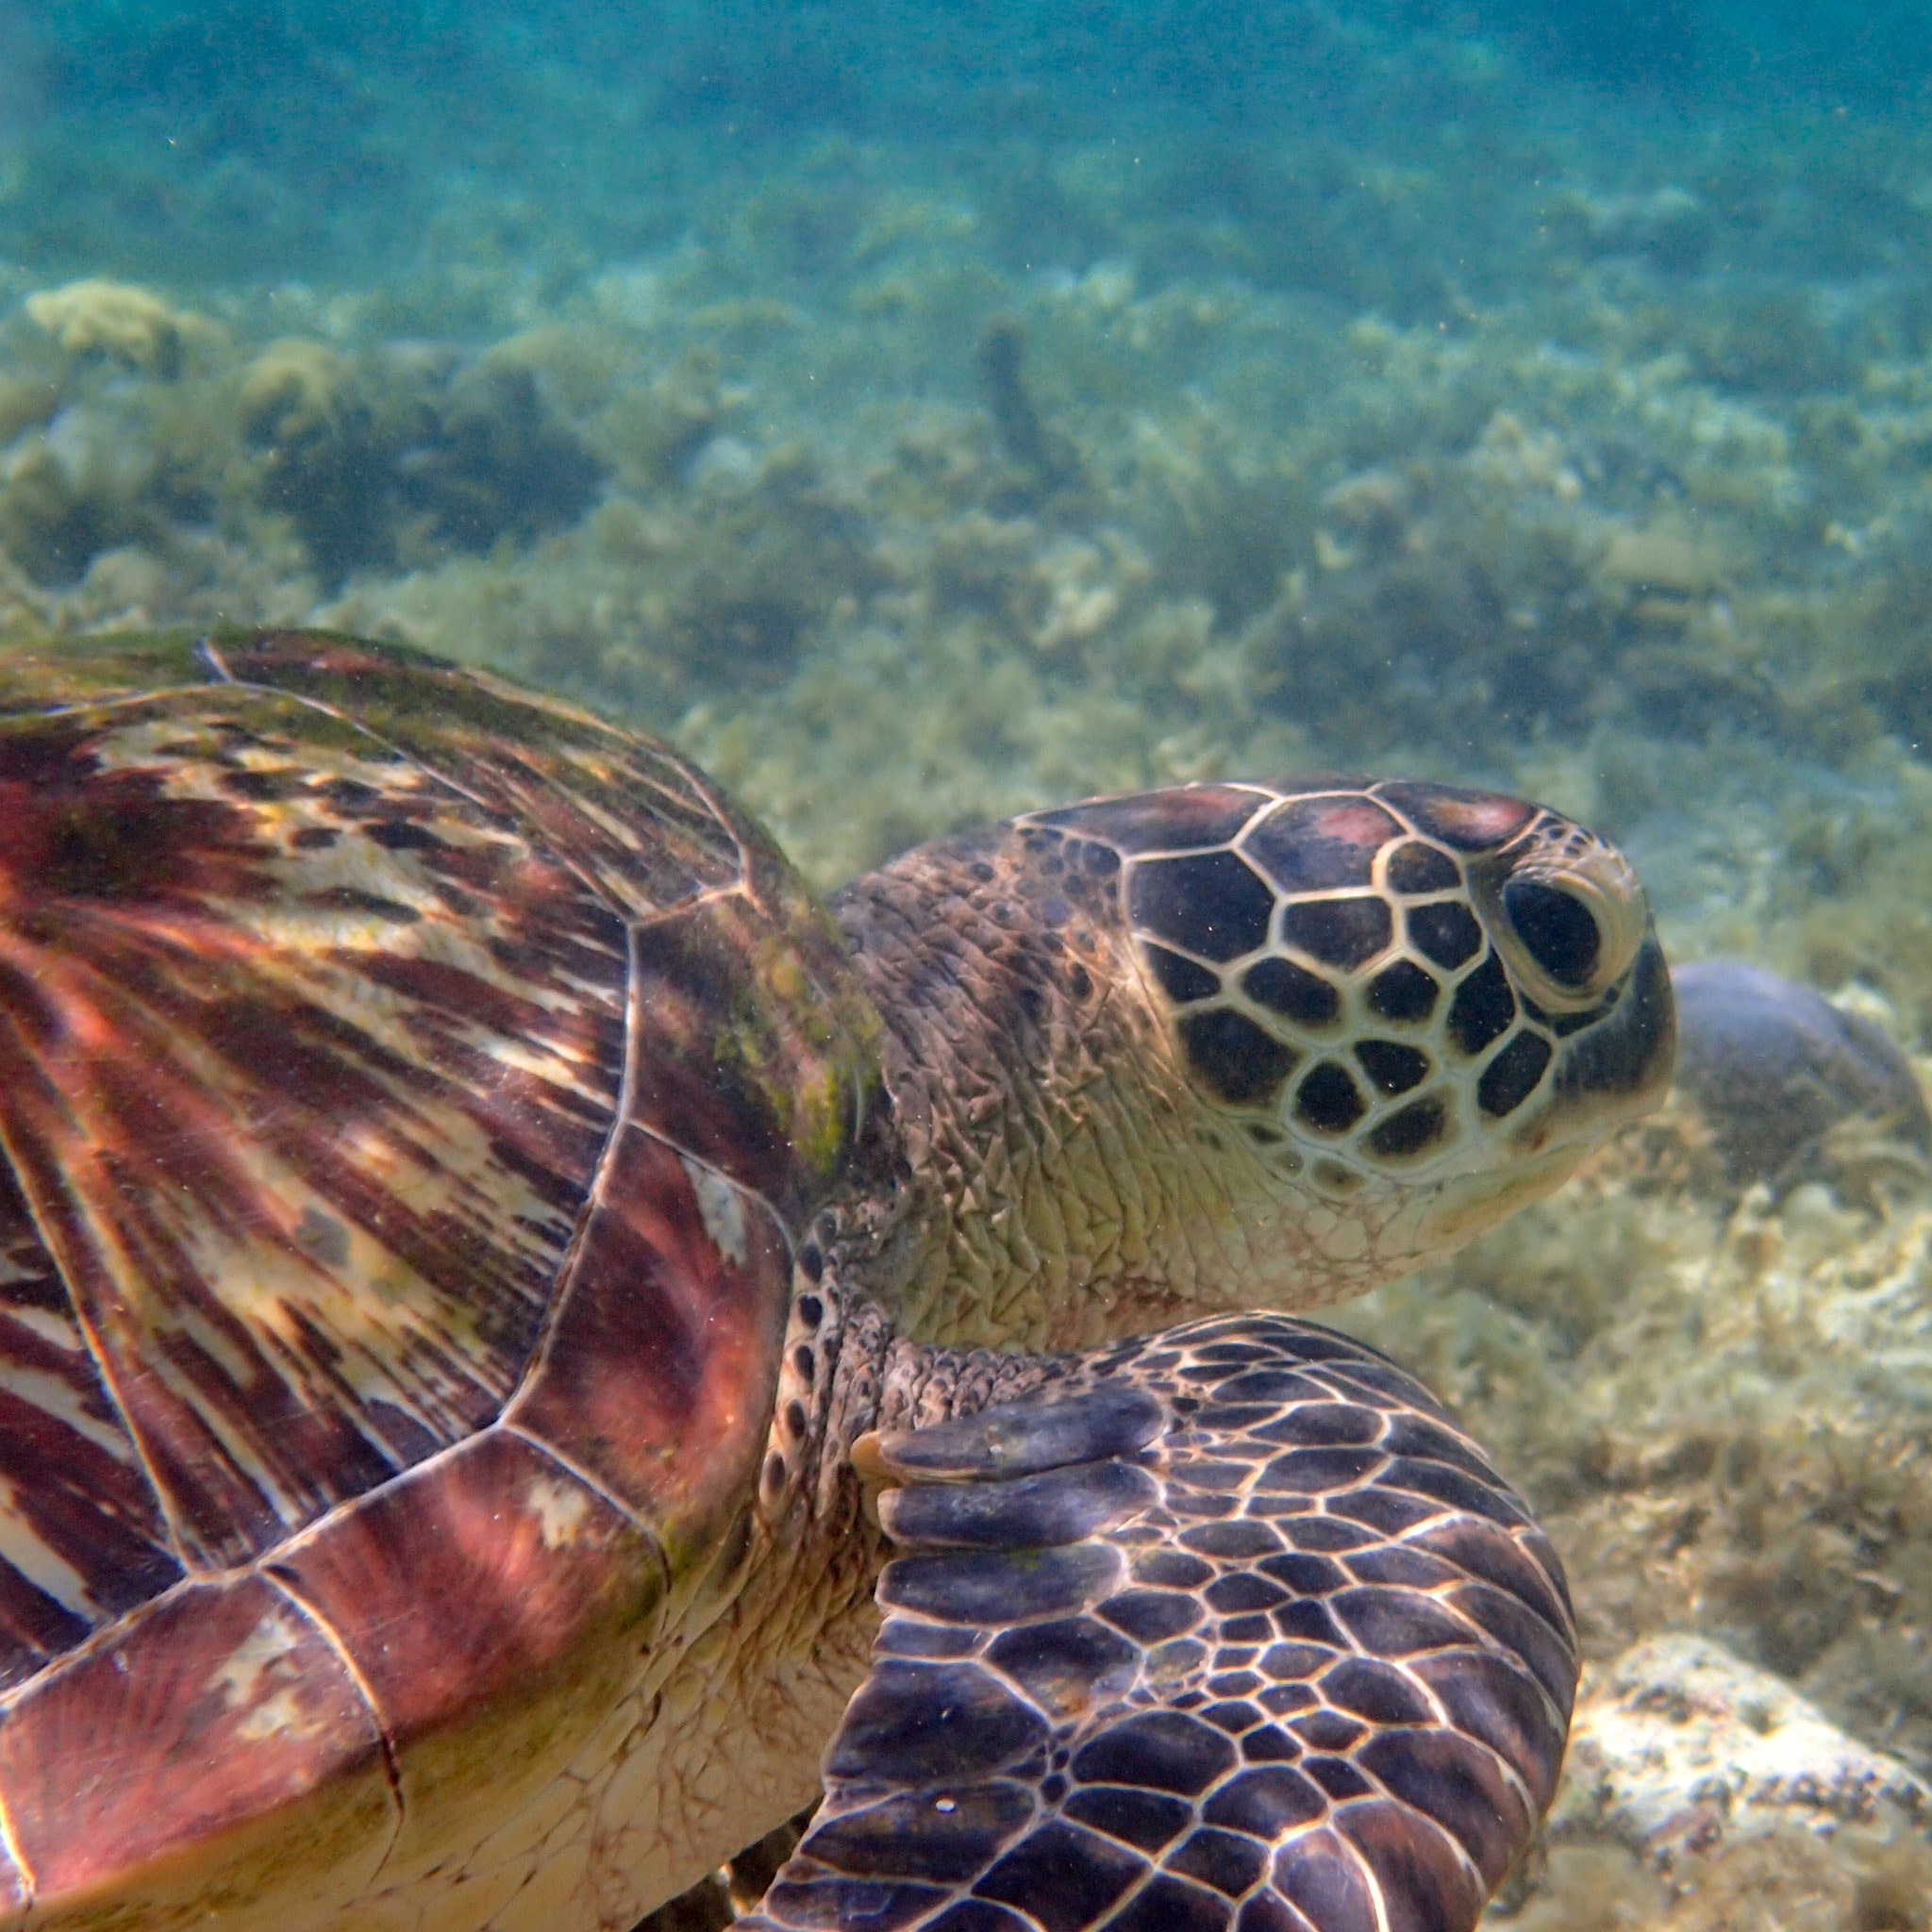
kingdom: Animalia
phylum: Chordata
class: Testudines
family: Cheloniidae
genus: Chelonia
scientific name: Chelonia mydas
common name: Green turtle
